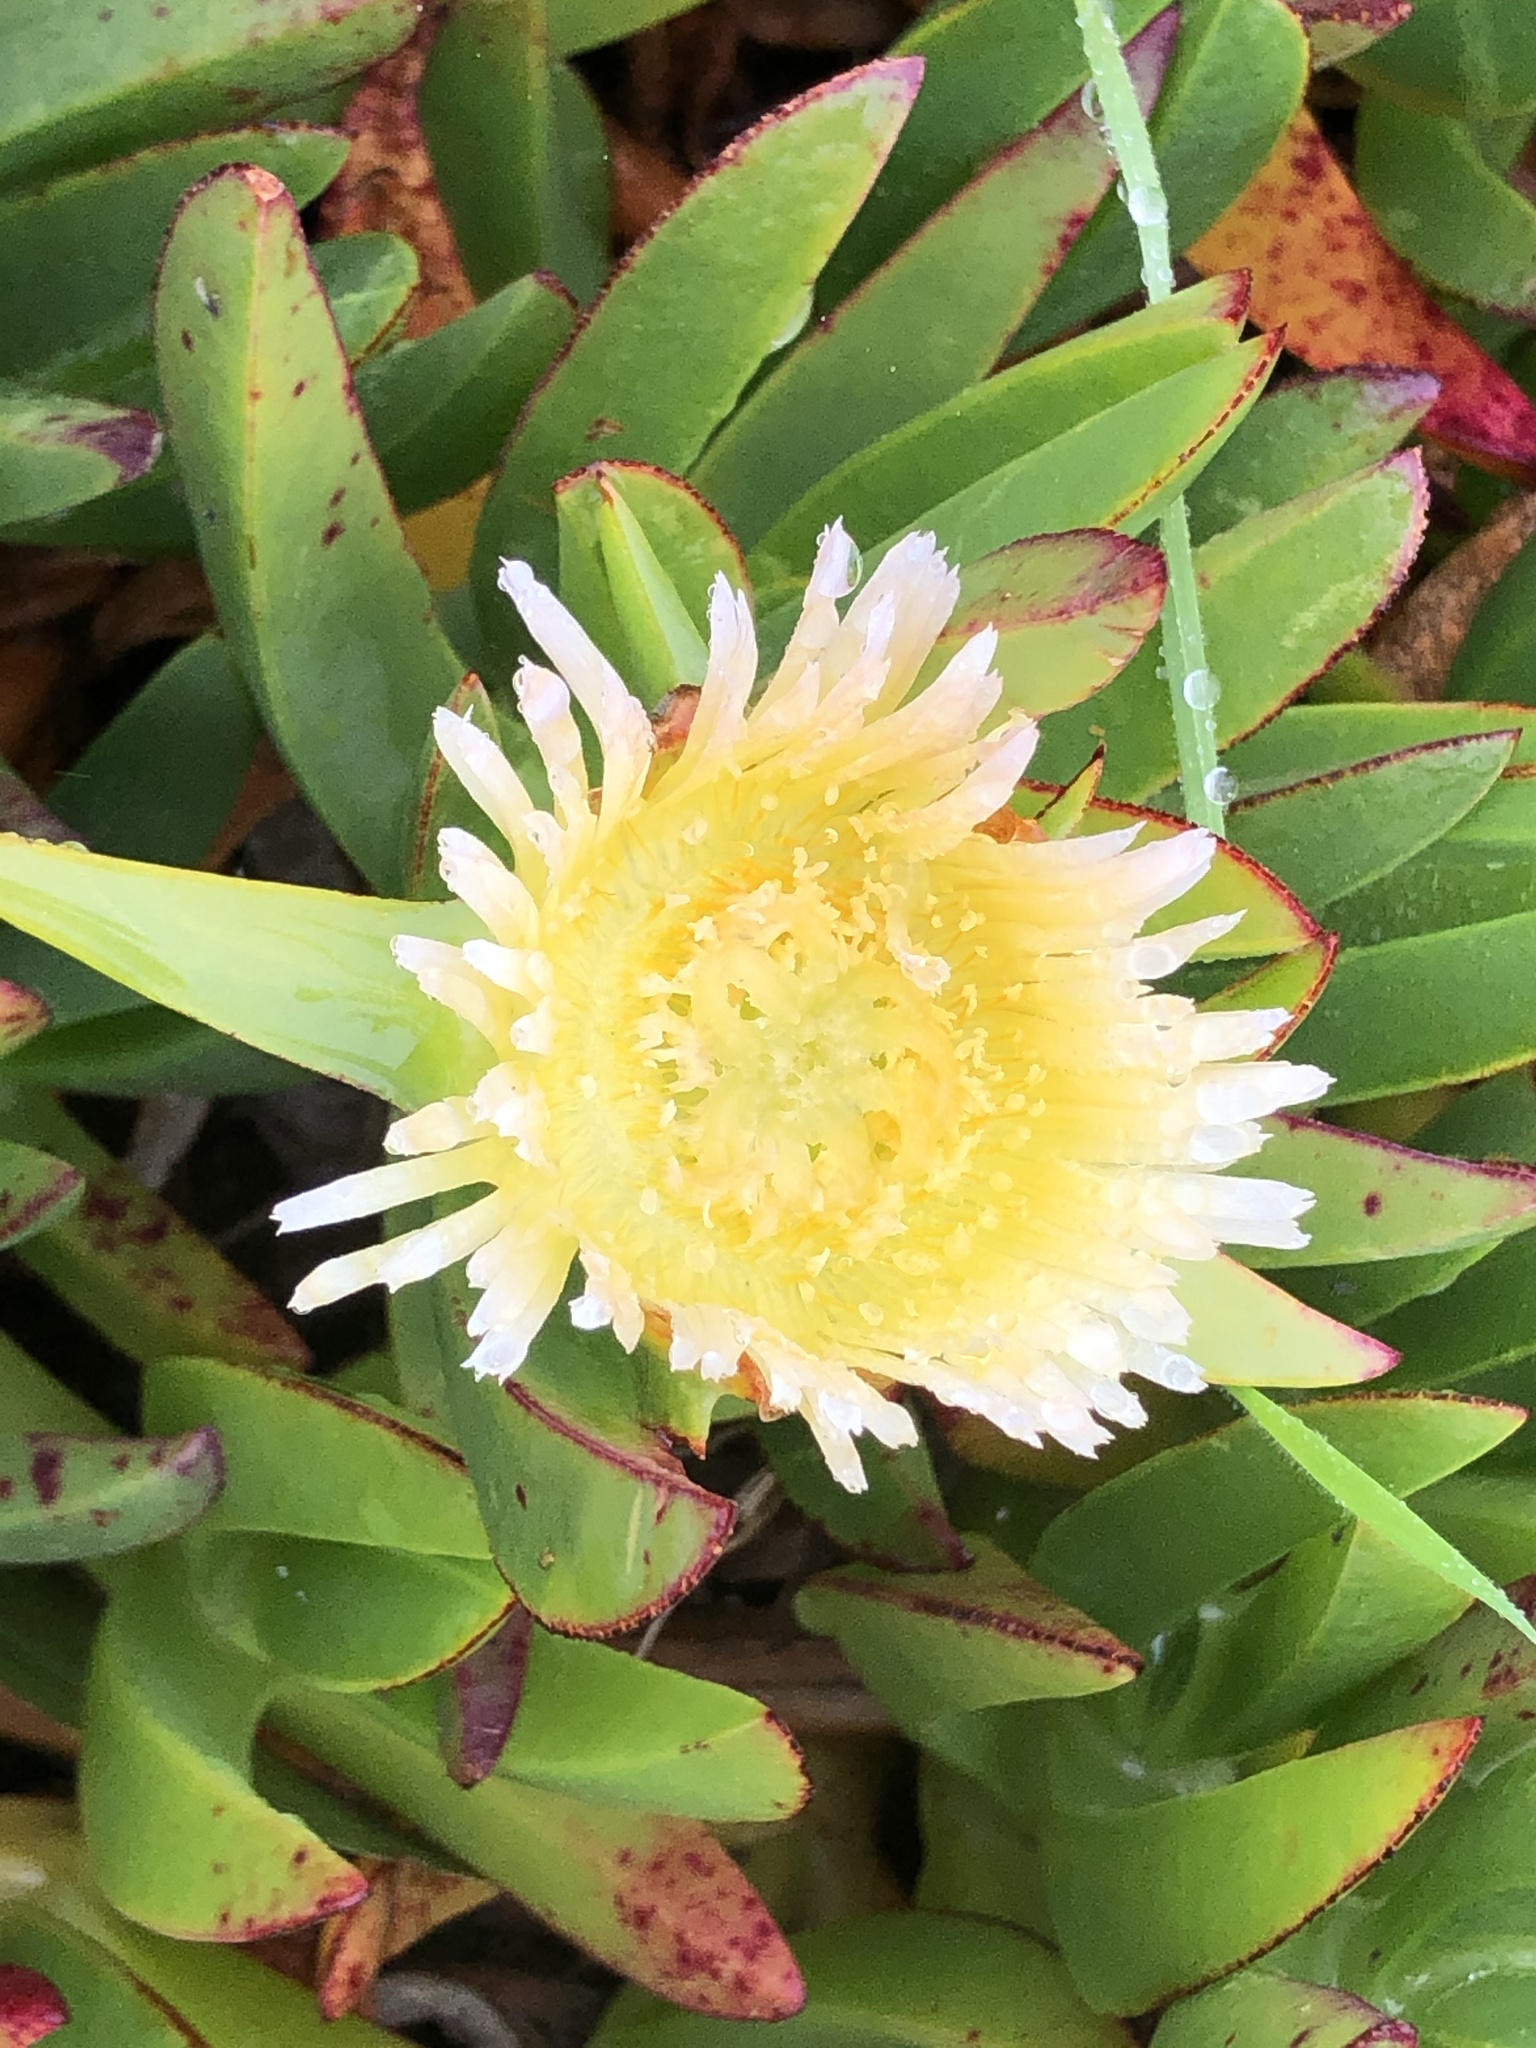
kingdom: Plantae
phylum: Tracheophyta
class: Magnoliopsida
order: Caryophyllales
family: Aizoaceae
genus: Carpobrotus
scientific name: Carpobrotus edulis
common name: Hottentot-fig
